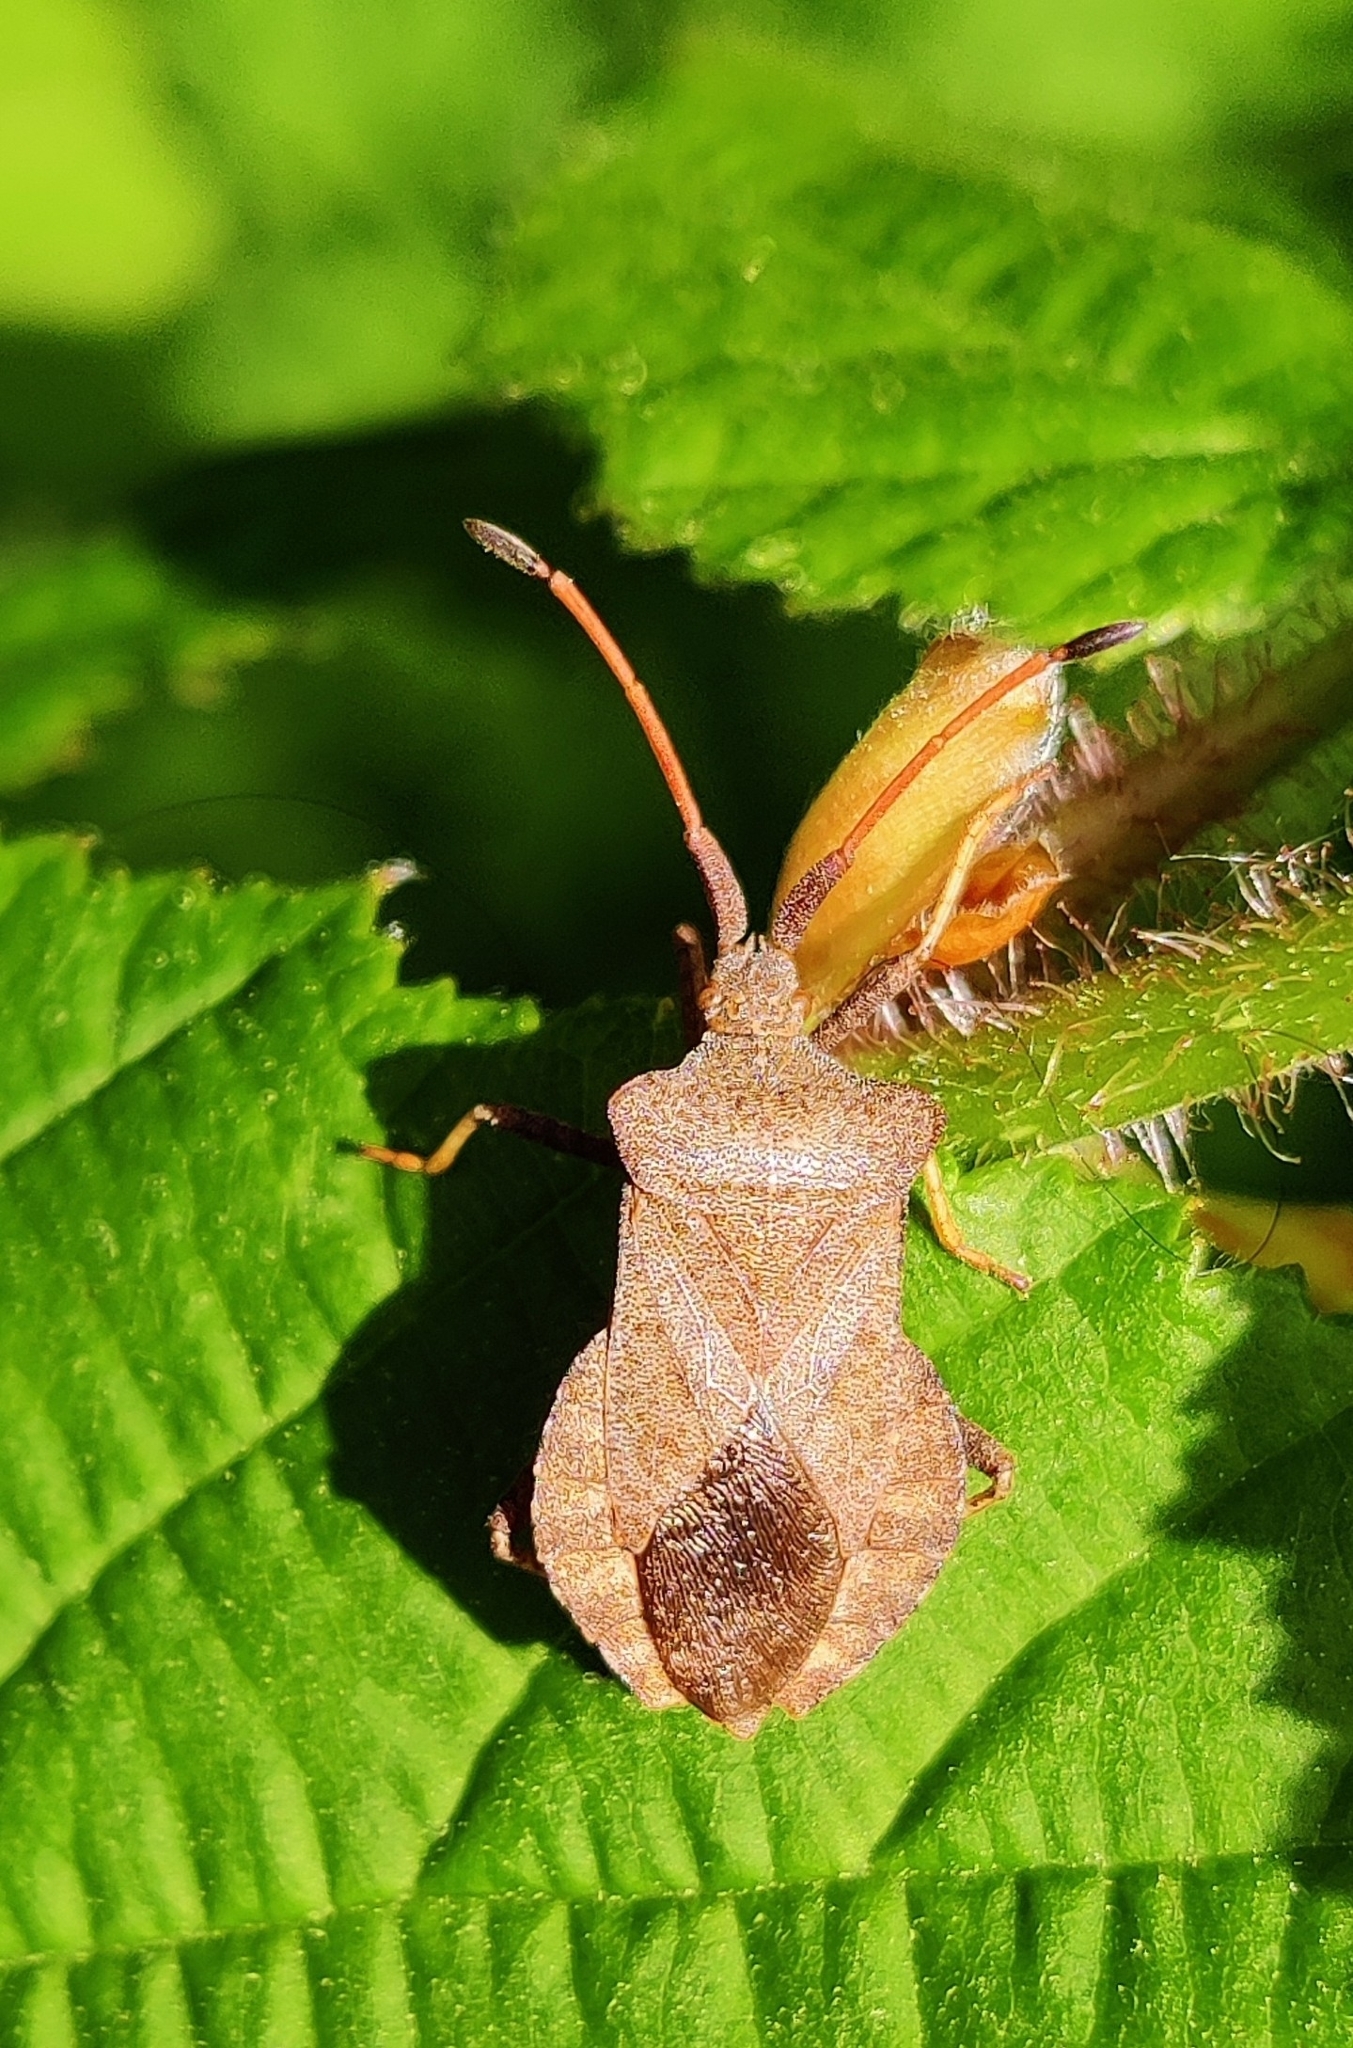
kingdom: Animalia
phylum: Arthropoda
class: Insecta
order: Hemiptera
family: Coreidae
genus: Coreus
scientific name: Coreus marginatus
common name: Dock bug
